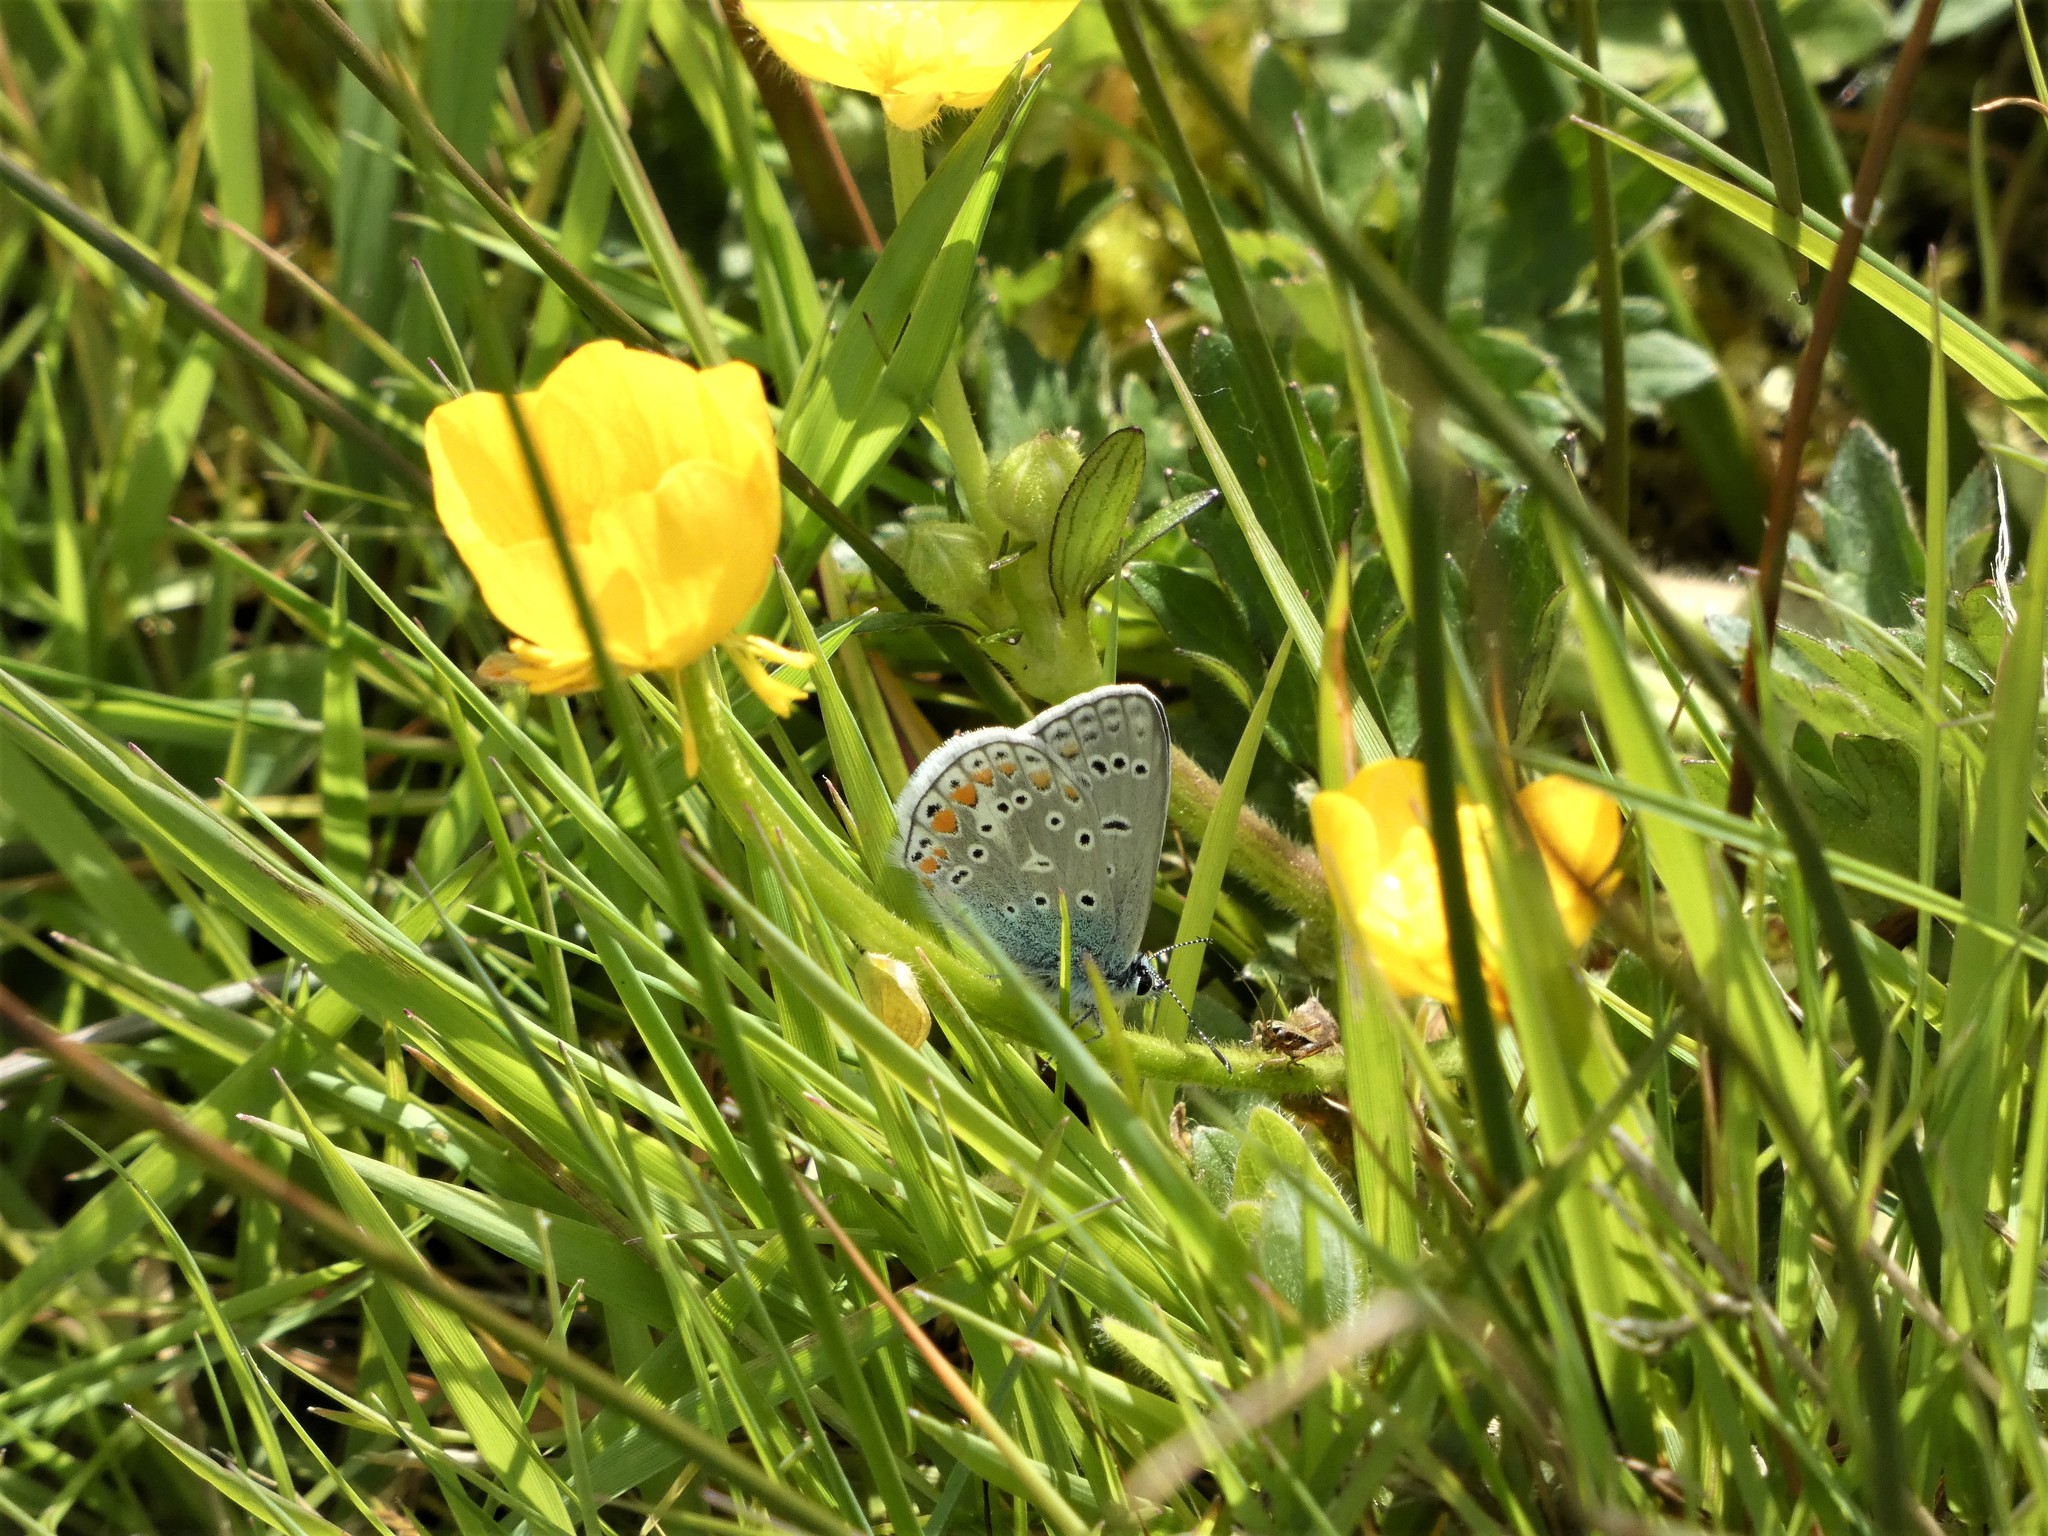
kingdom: Animalia
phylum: Arthropoda
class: Insecta
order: Lepidoptera
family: Lycaenidae
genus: Polyommatus
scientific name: Polyommatus icarus
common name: Common blue
